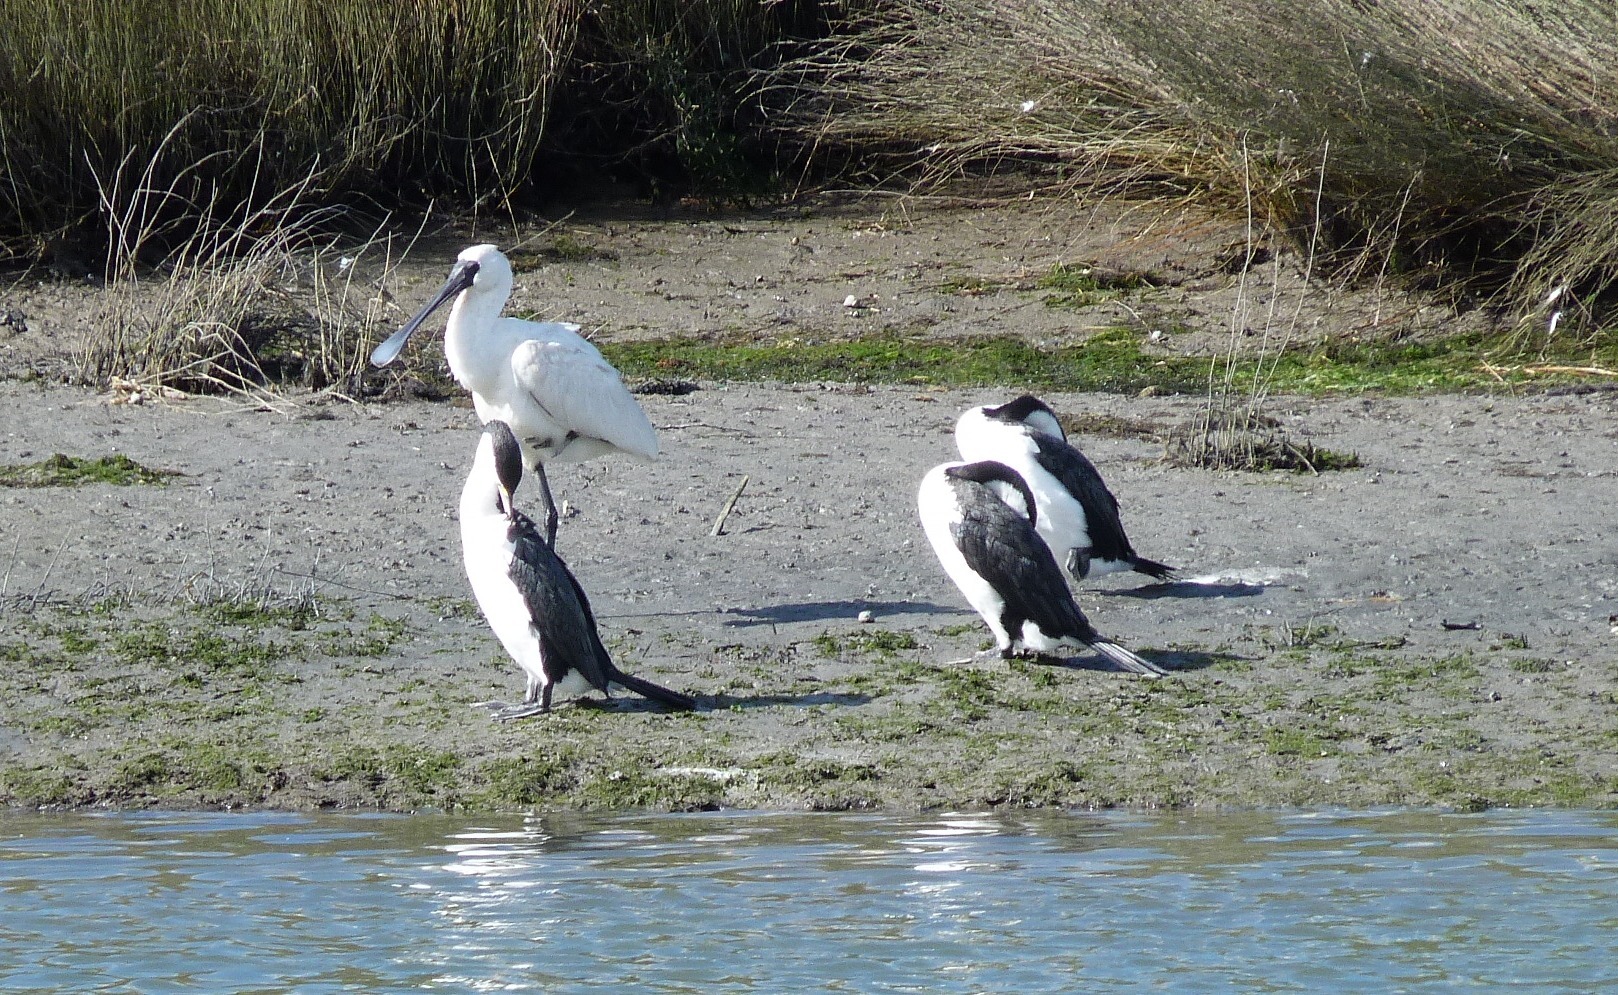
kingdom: Animalia
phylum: Chordata
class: Aves
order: Suliformes
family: Phalacrocoracidae
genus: Phalacrocorax
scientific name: Phalacrocorax varius
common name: Pied cormorant
